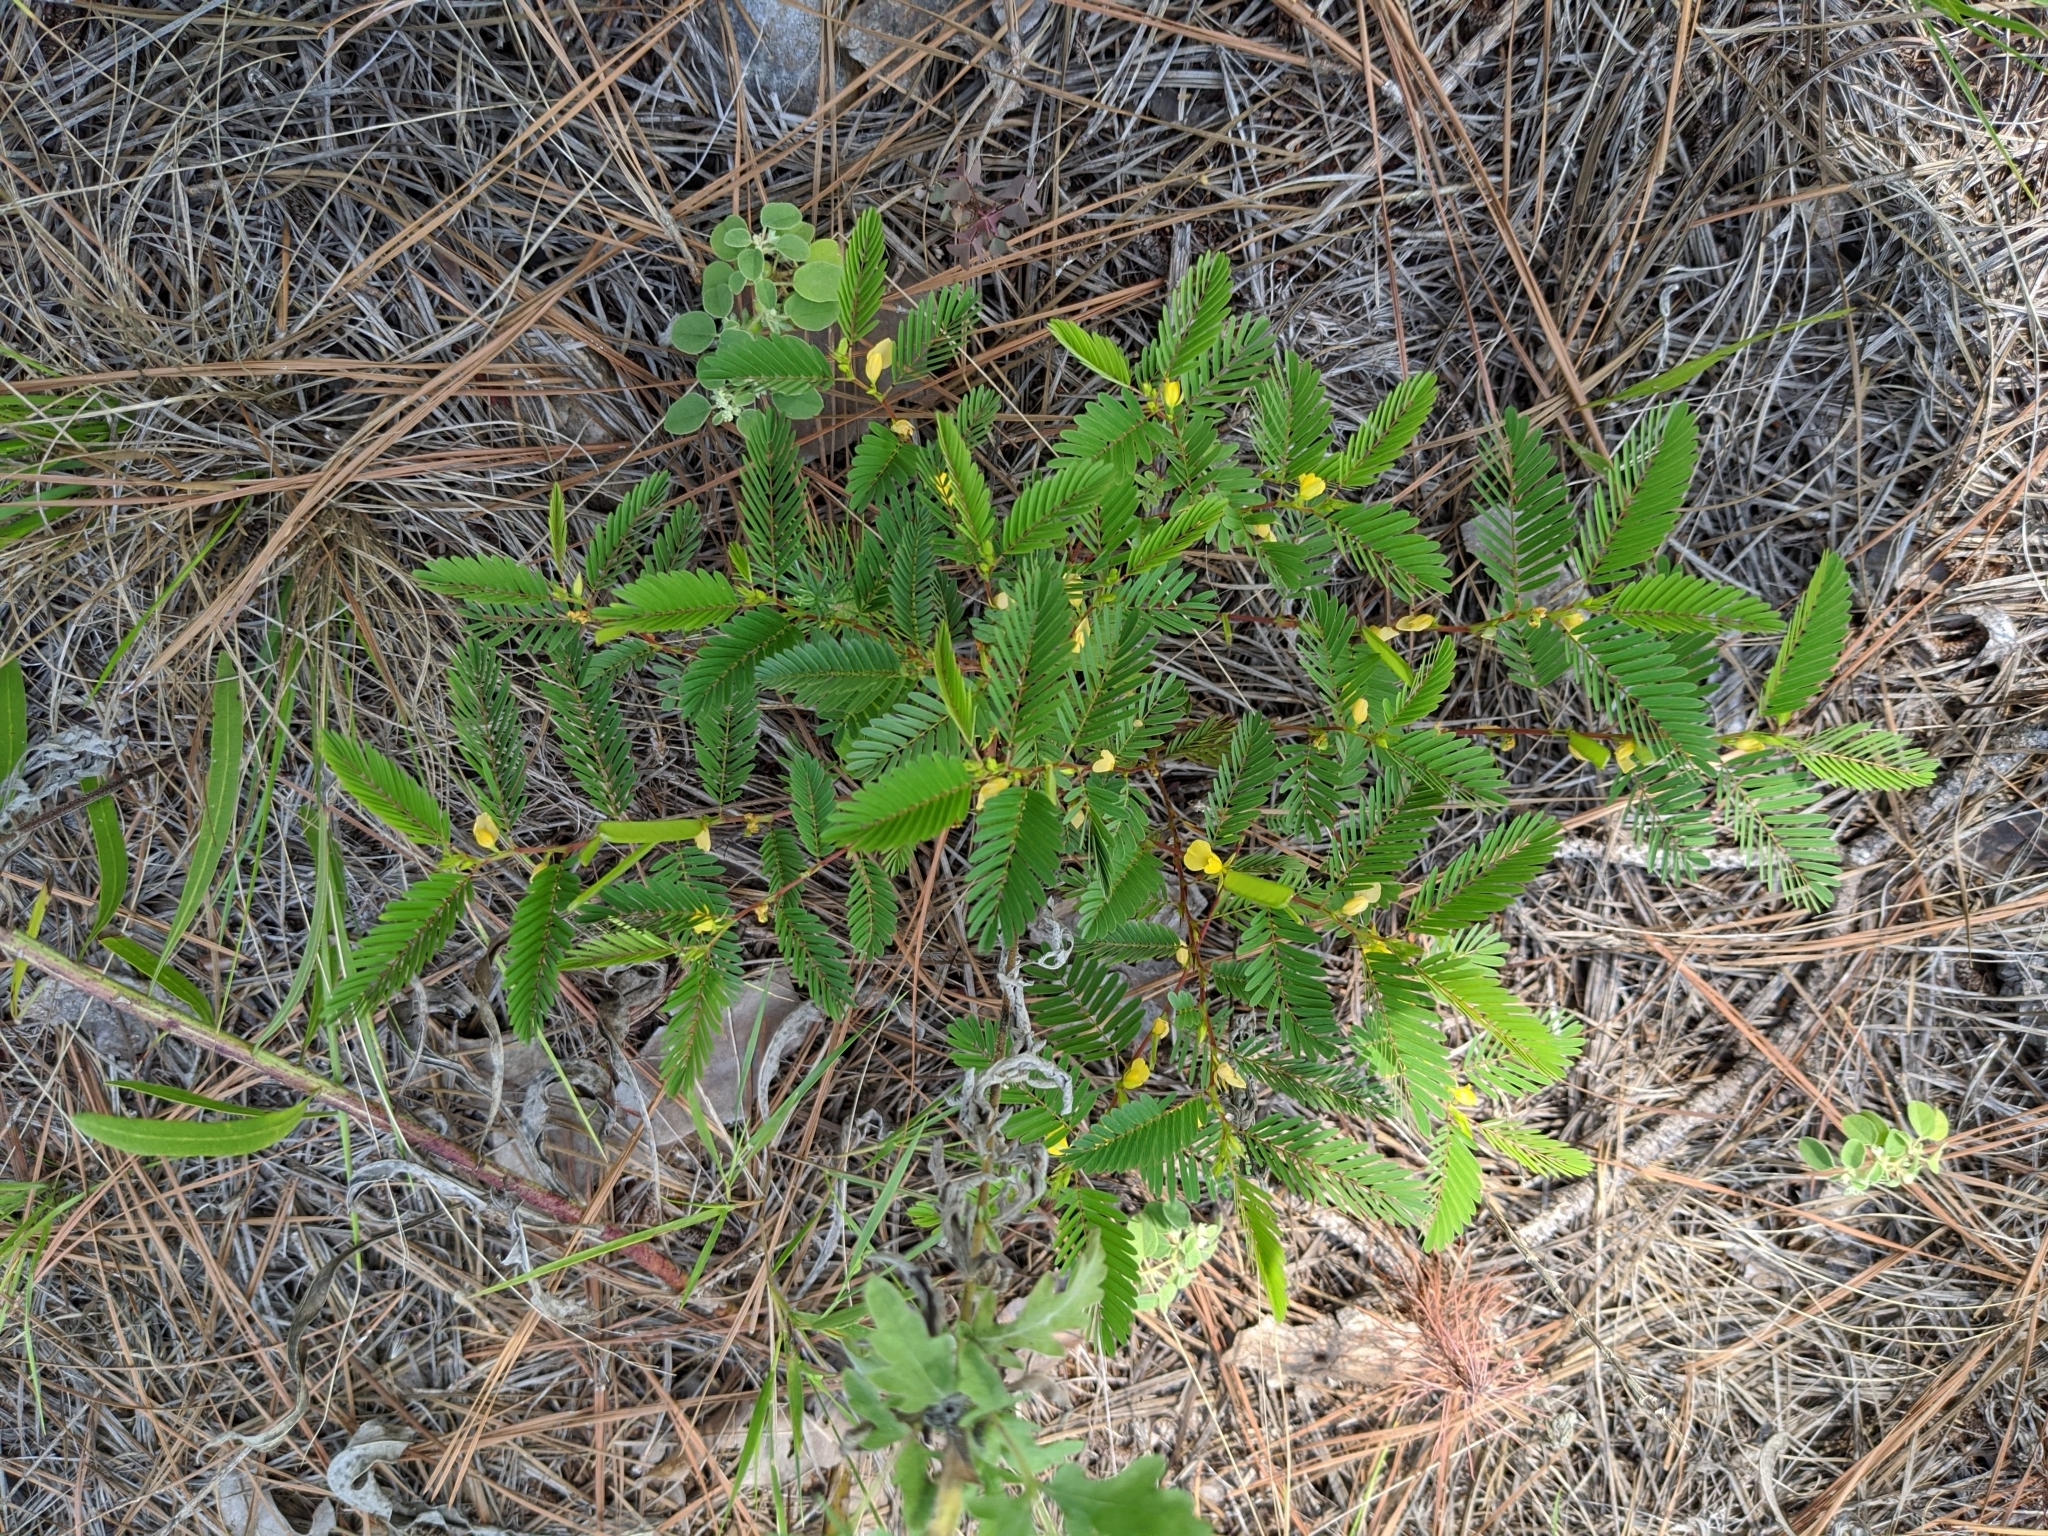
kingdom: Plantae
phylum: Tracheophyta
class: Magnoliopsida
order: Fabales
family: Fabaceae
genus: Chamaecrista
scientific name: Chamaecrista nictitans
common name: Sensitive cassia
